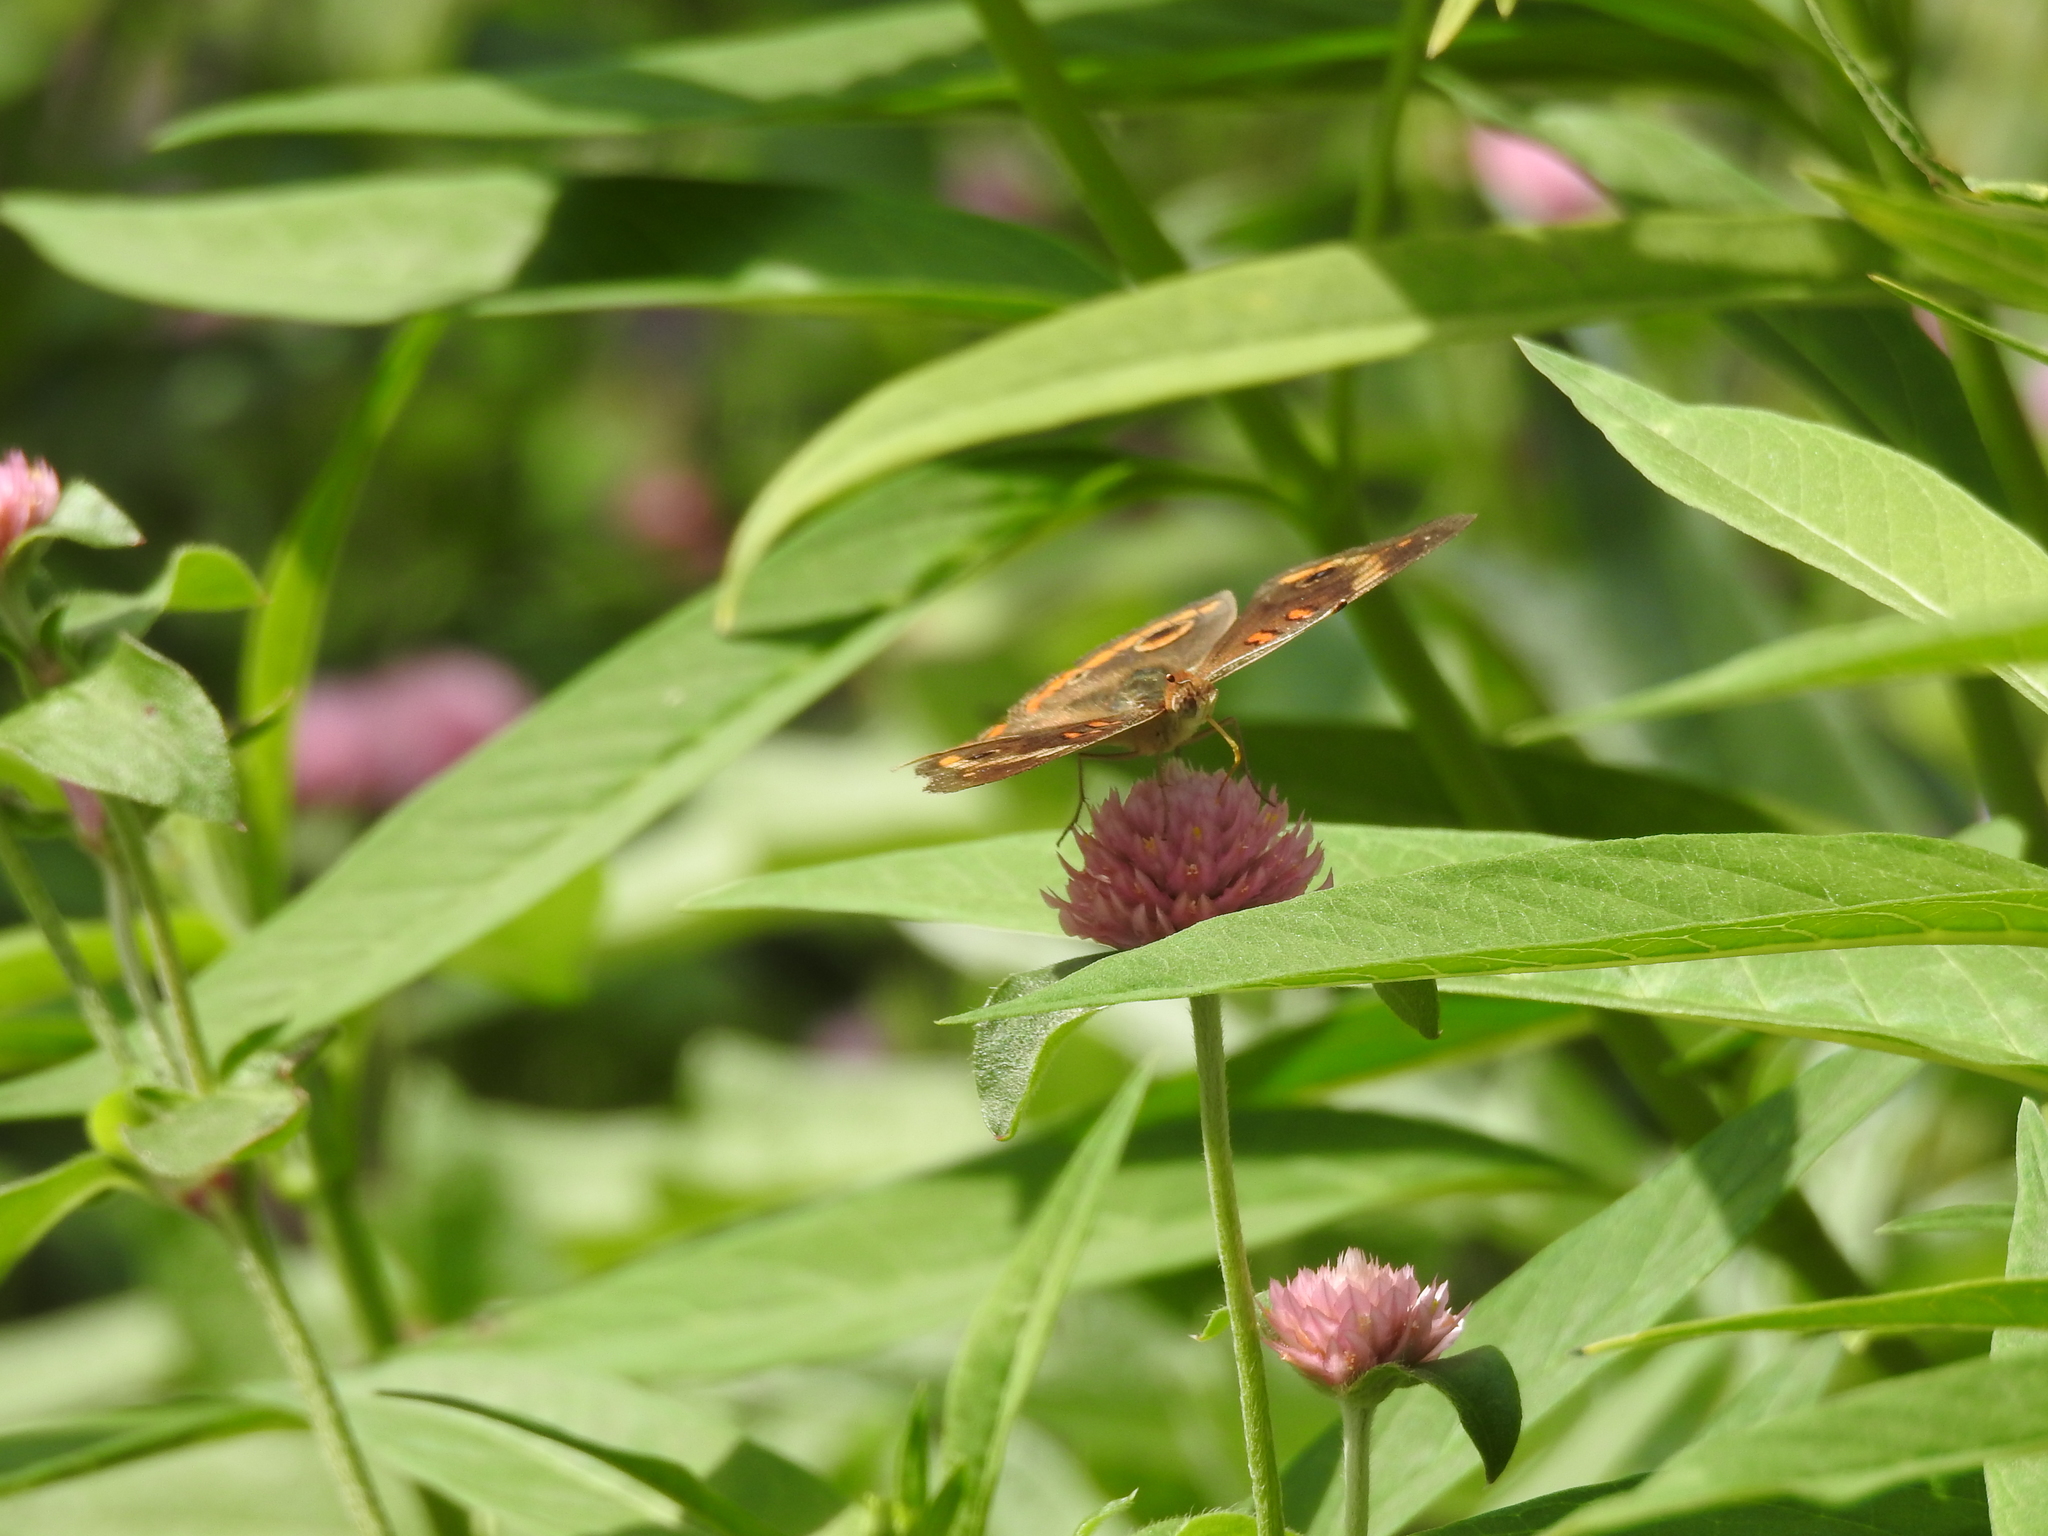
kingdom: Animalia
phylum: Arthropoda
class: Insecta
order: Lepidoptera
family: Nymphalidae
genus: Junonia
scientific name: Junonia coenia
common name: Common buckeye
